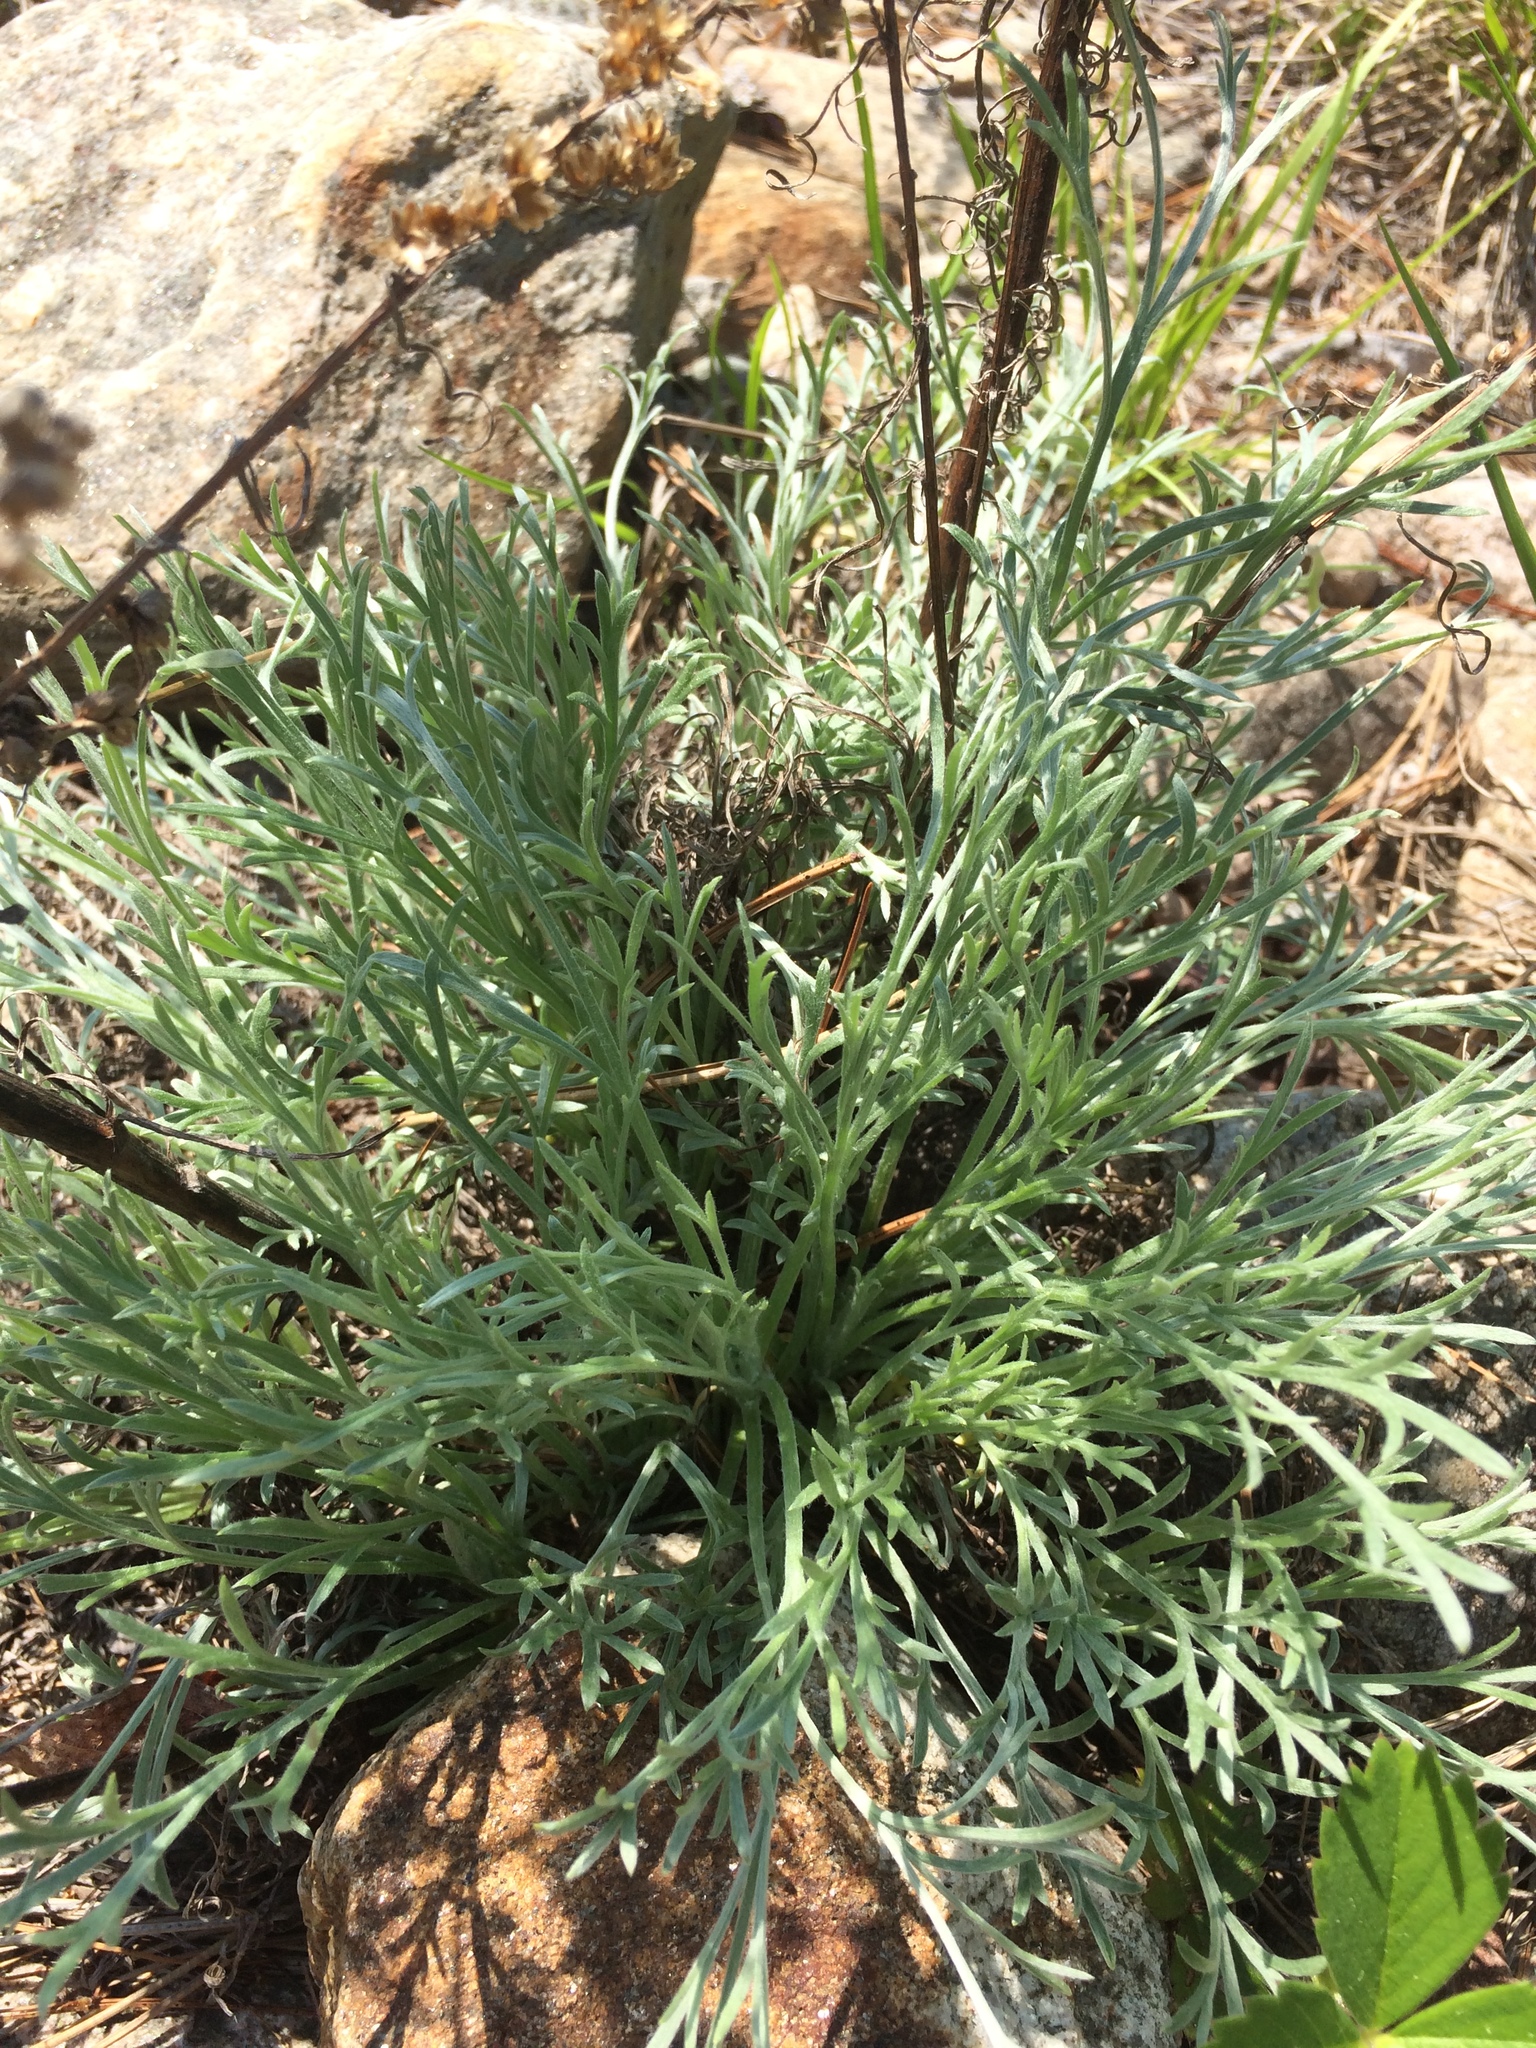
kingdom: Plantae
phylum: Tracheophyta
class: Magnoliopsida
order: Asterales
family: Asteraceae
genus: Artemisia
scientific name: Artemisia campestris
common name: Field wormwood
